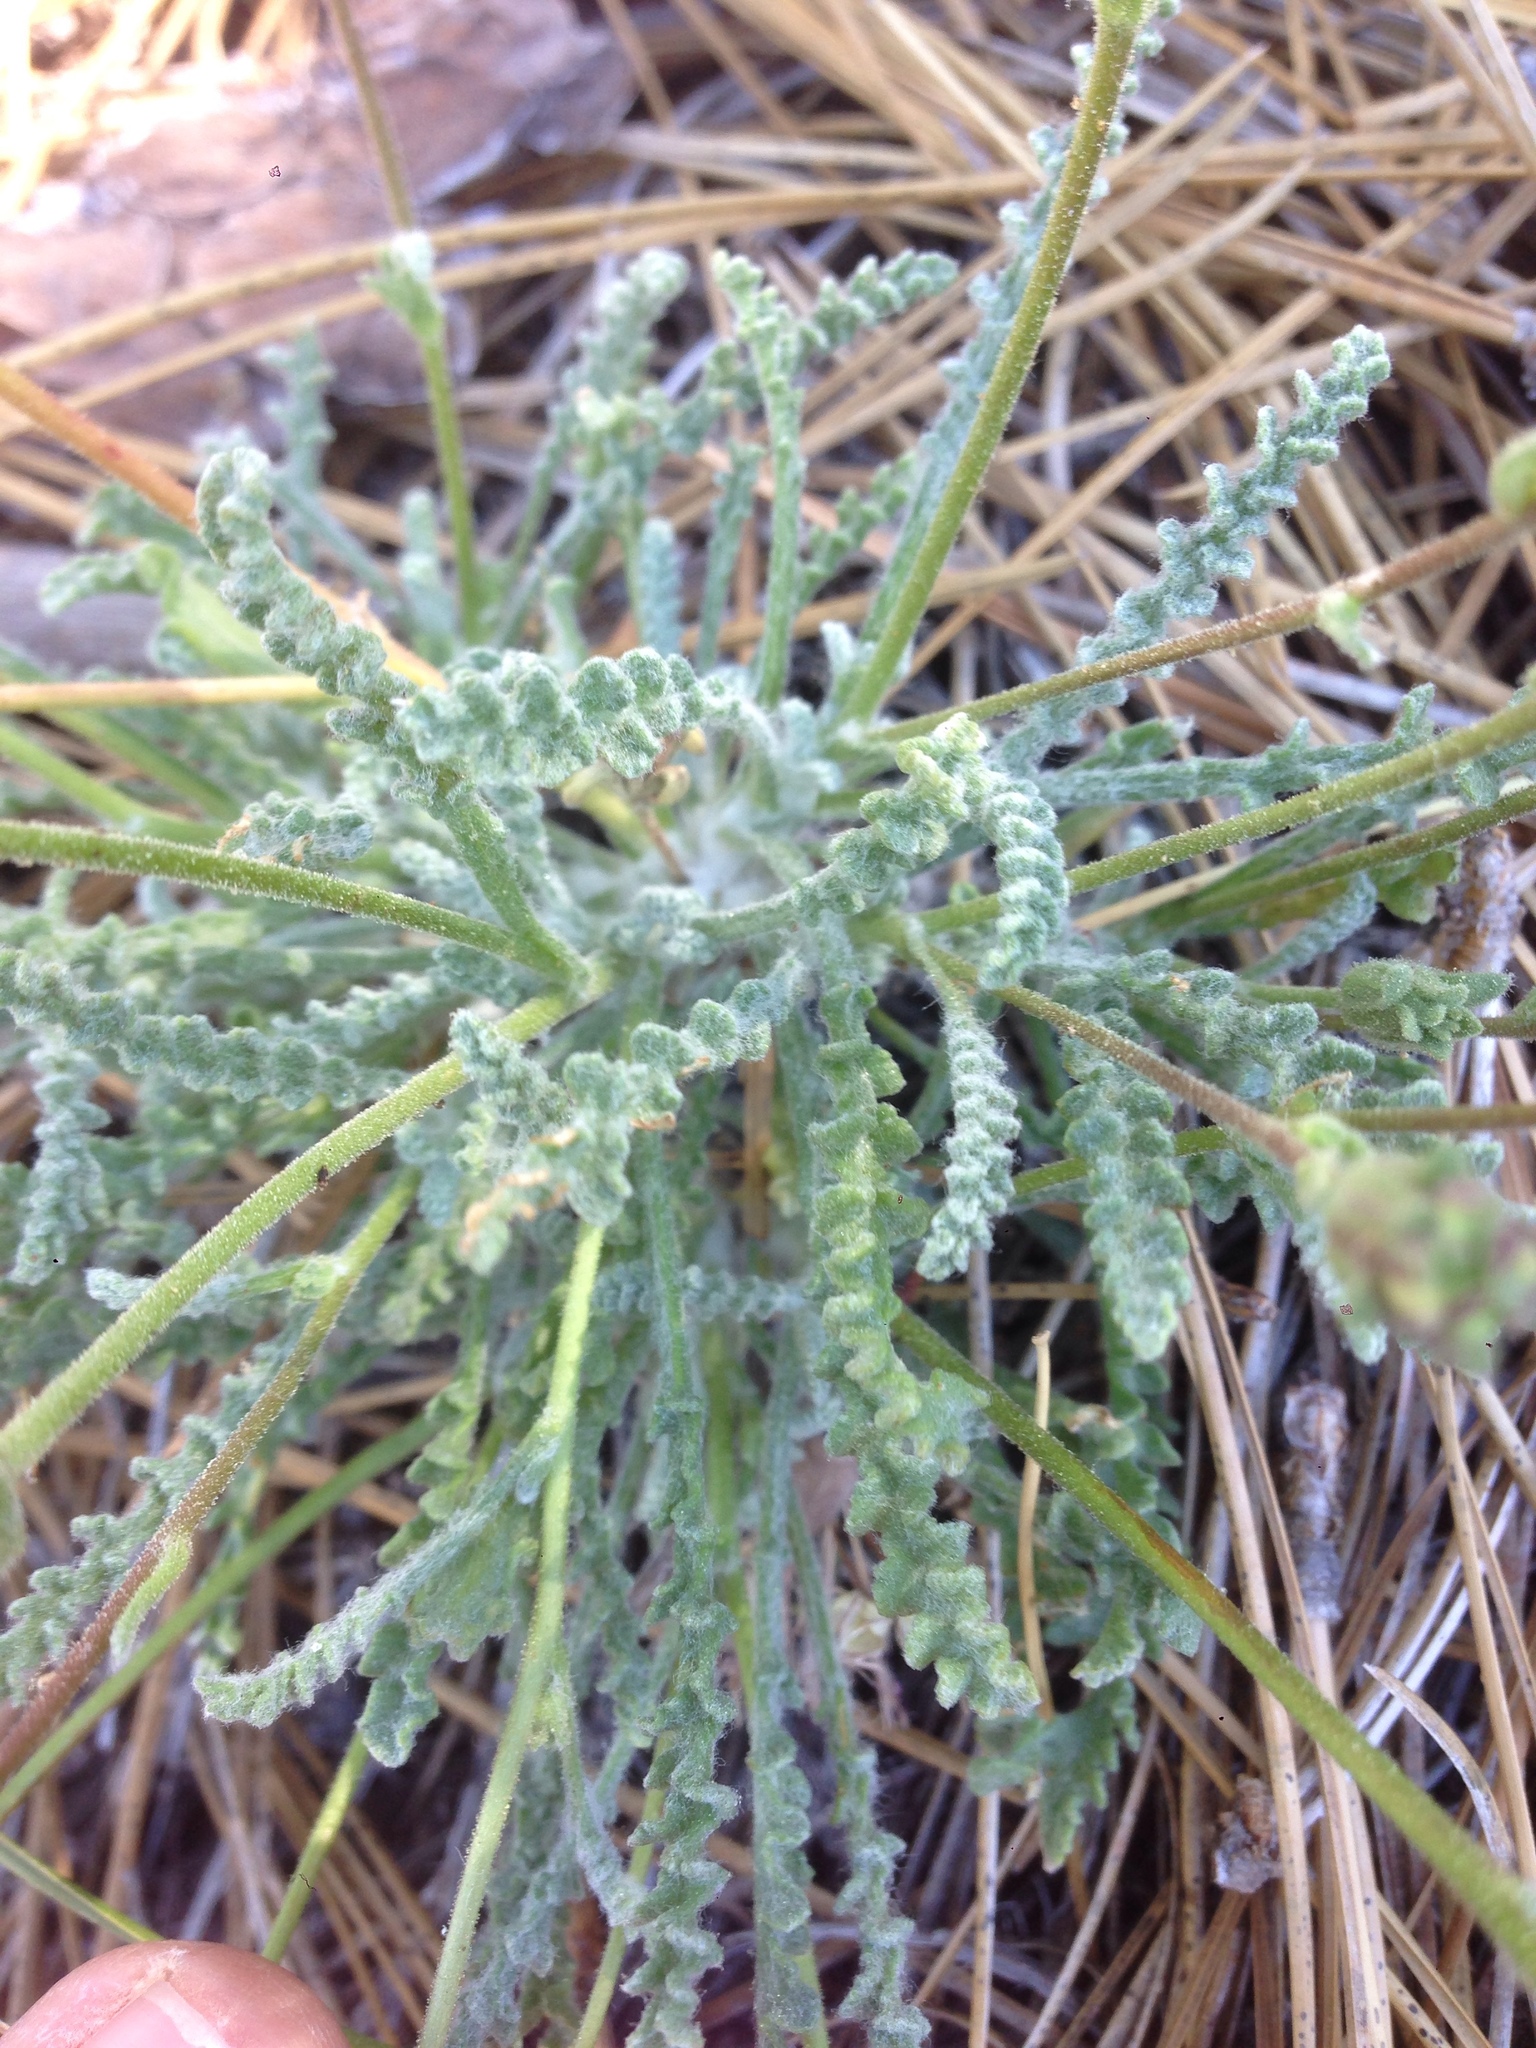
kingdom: Plantae
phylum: Tracheophyta
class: Magnoliopsida
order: Asterales
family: Asteraceae
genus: Chaenactis
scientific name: Chaenactis santolinoides
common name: Santolina pincushion
